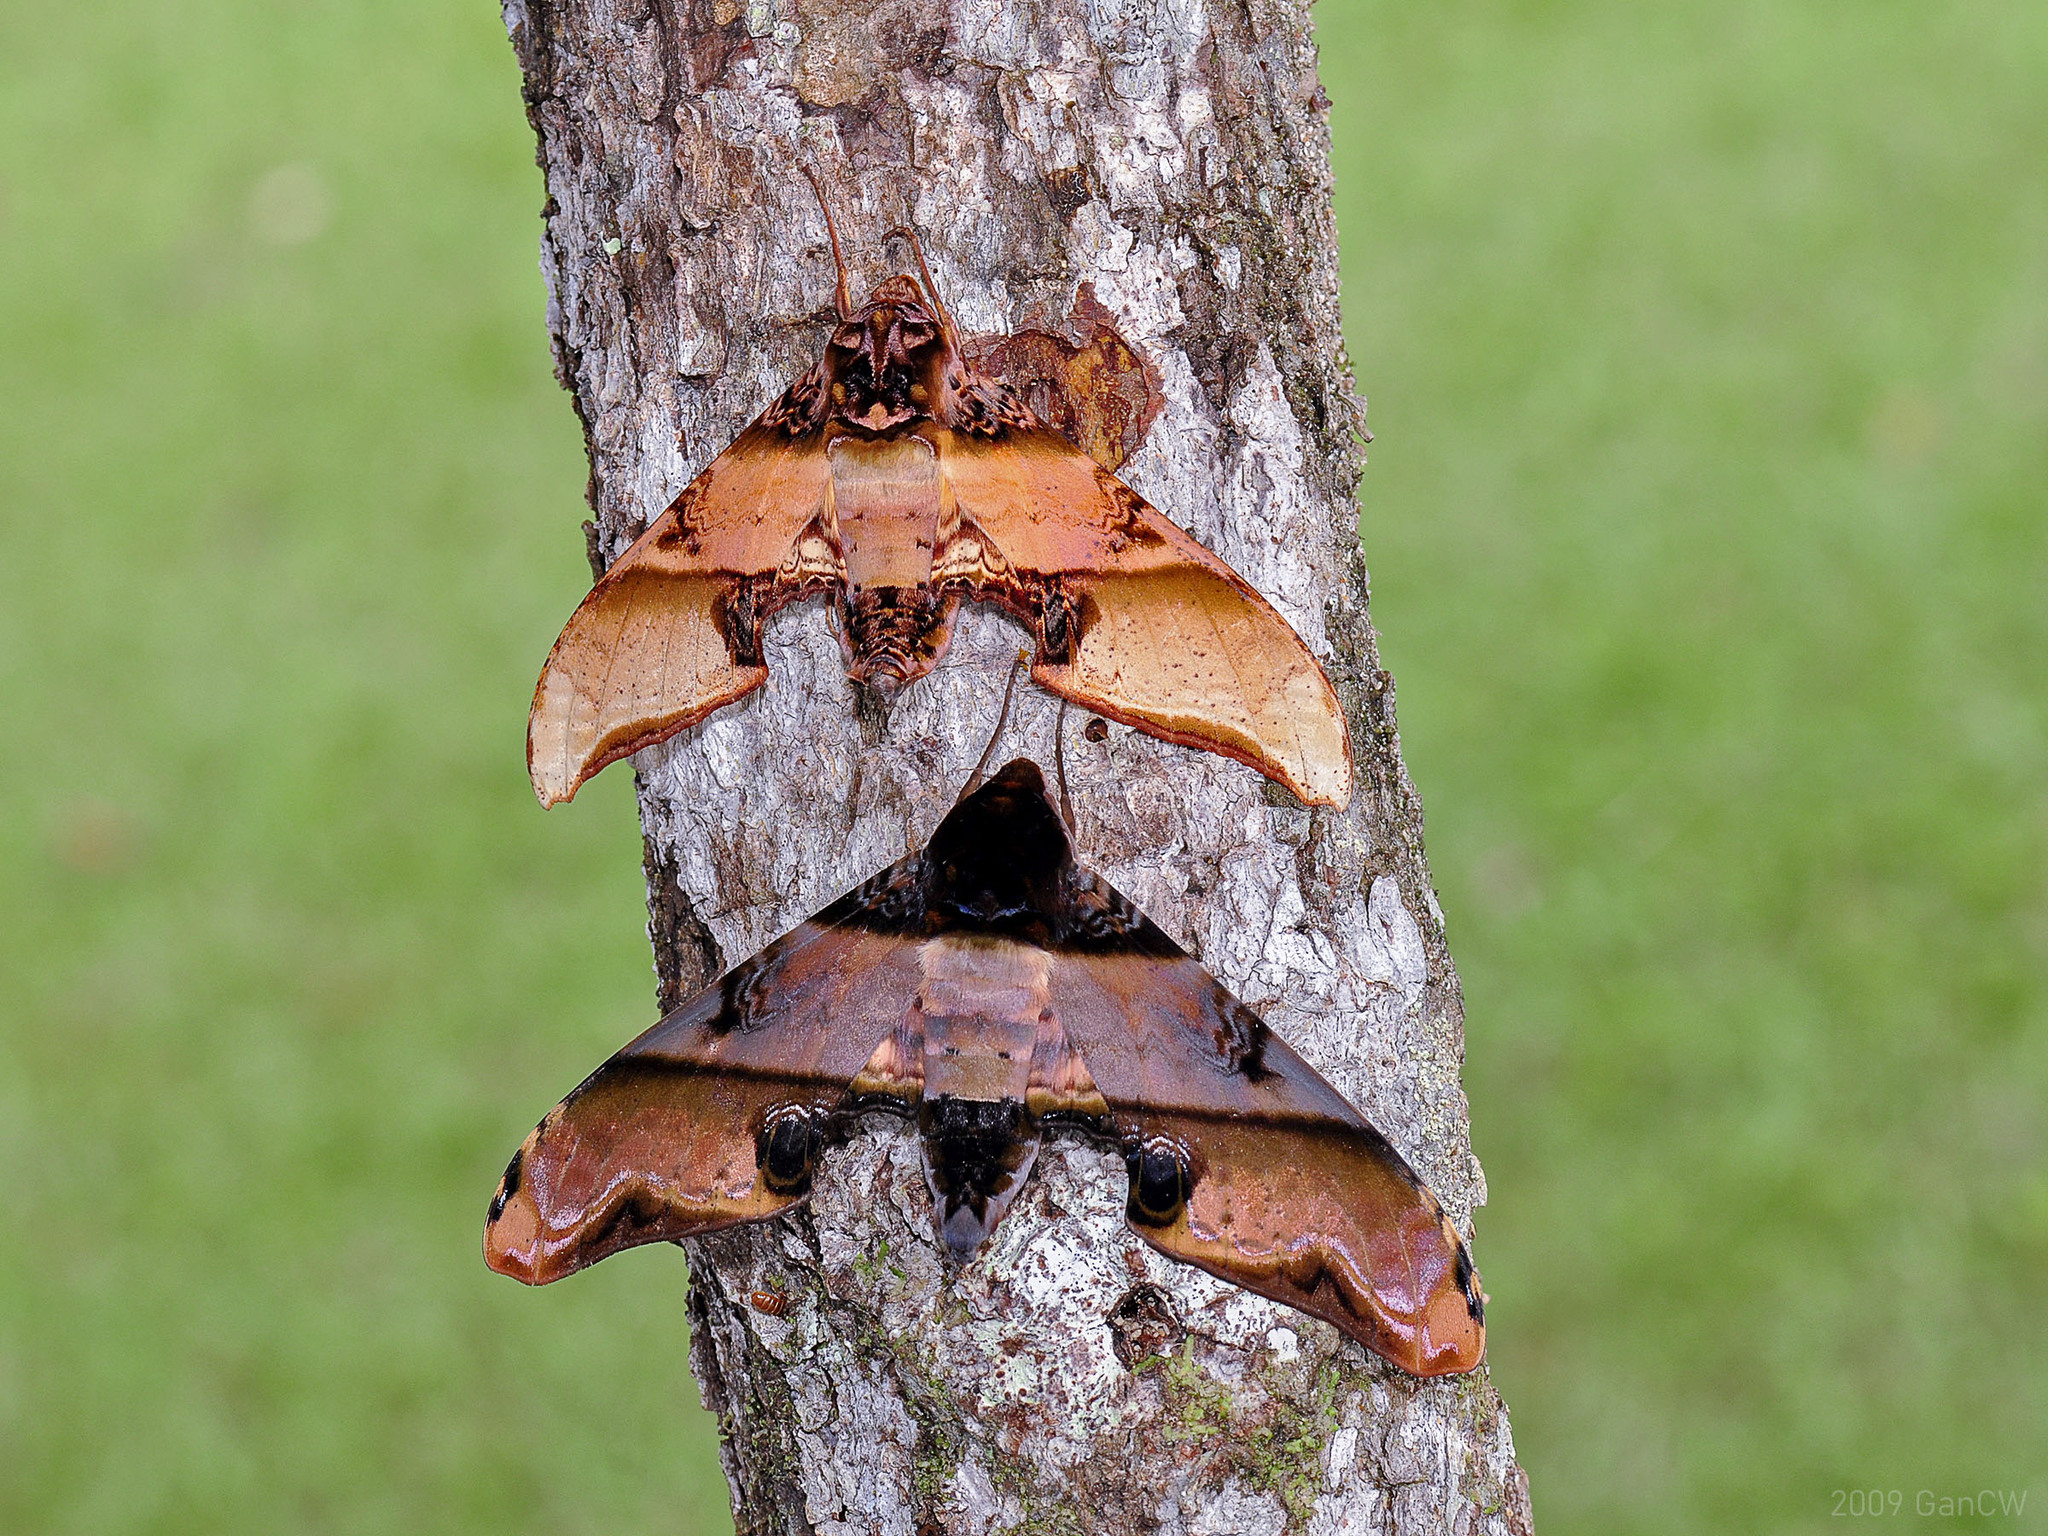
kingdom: Animalia
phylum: Arthropoda
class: Insecta
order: Lepidoptera
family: Sphingidae
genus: Amplypterus
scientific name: Amplypterus mansoni
